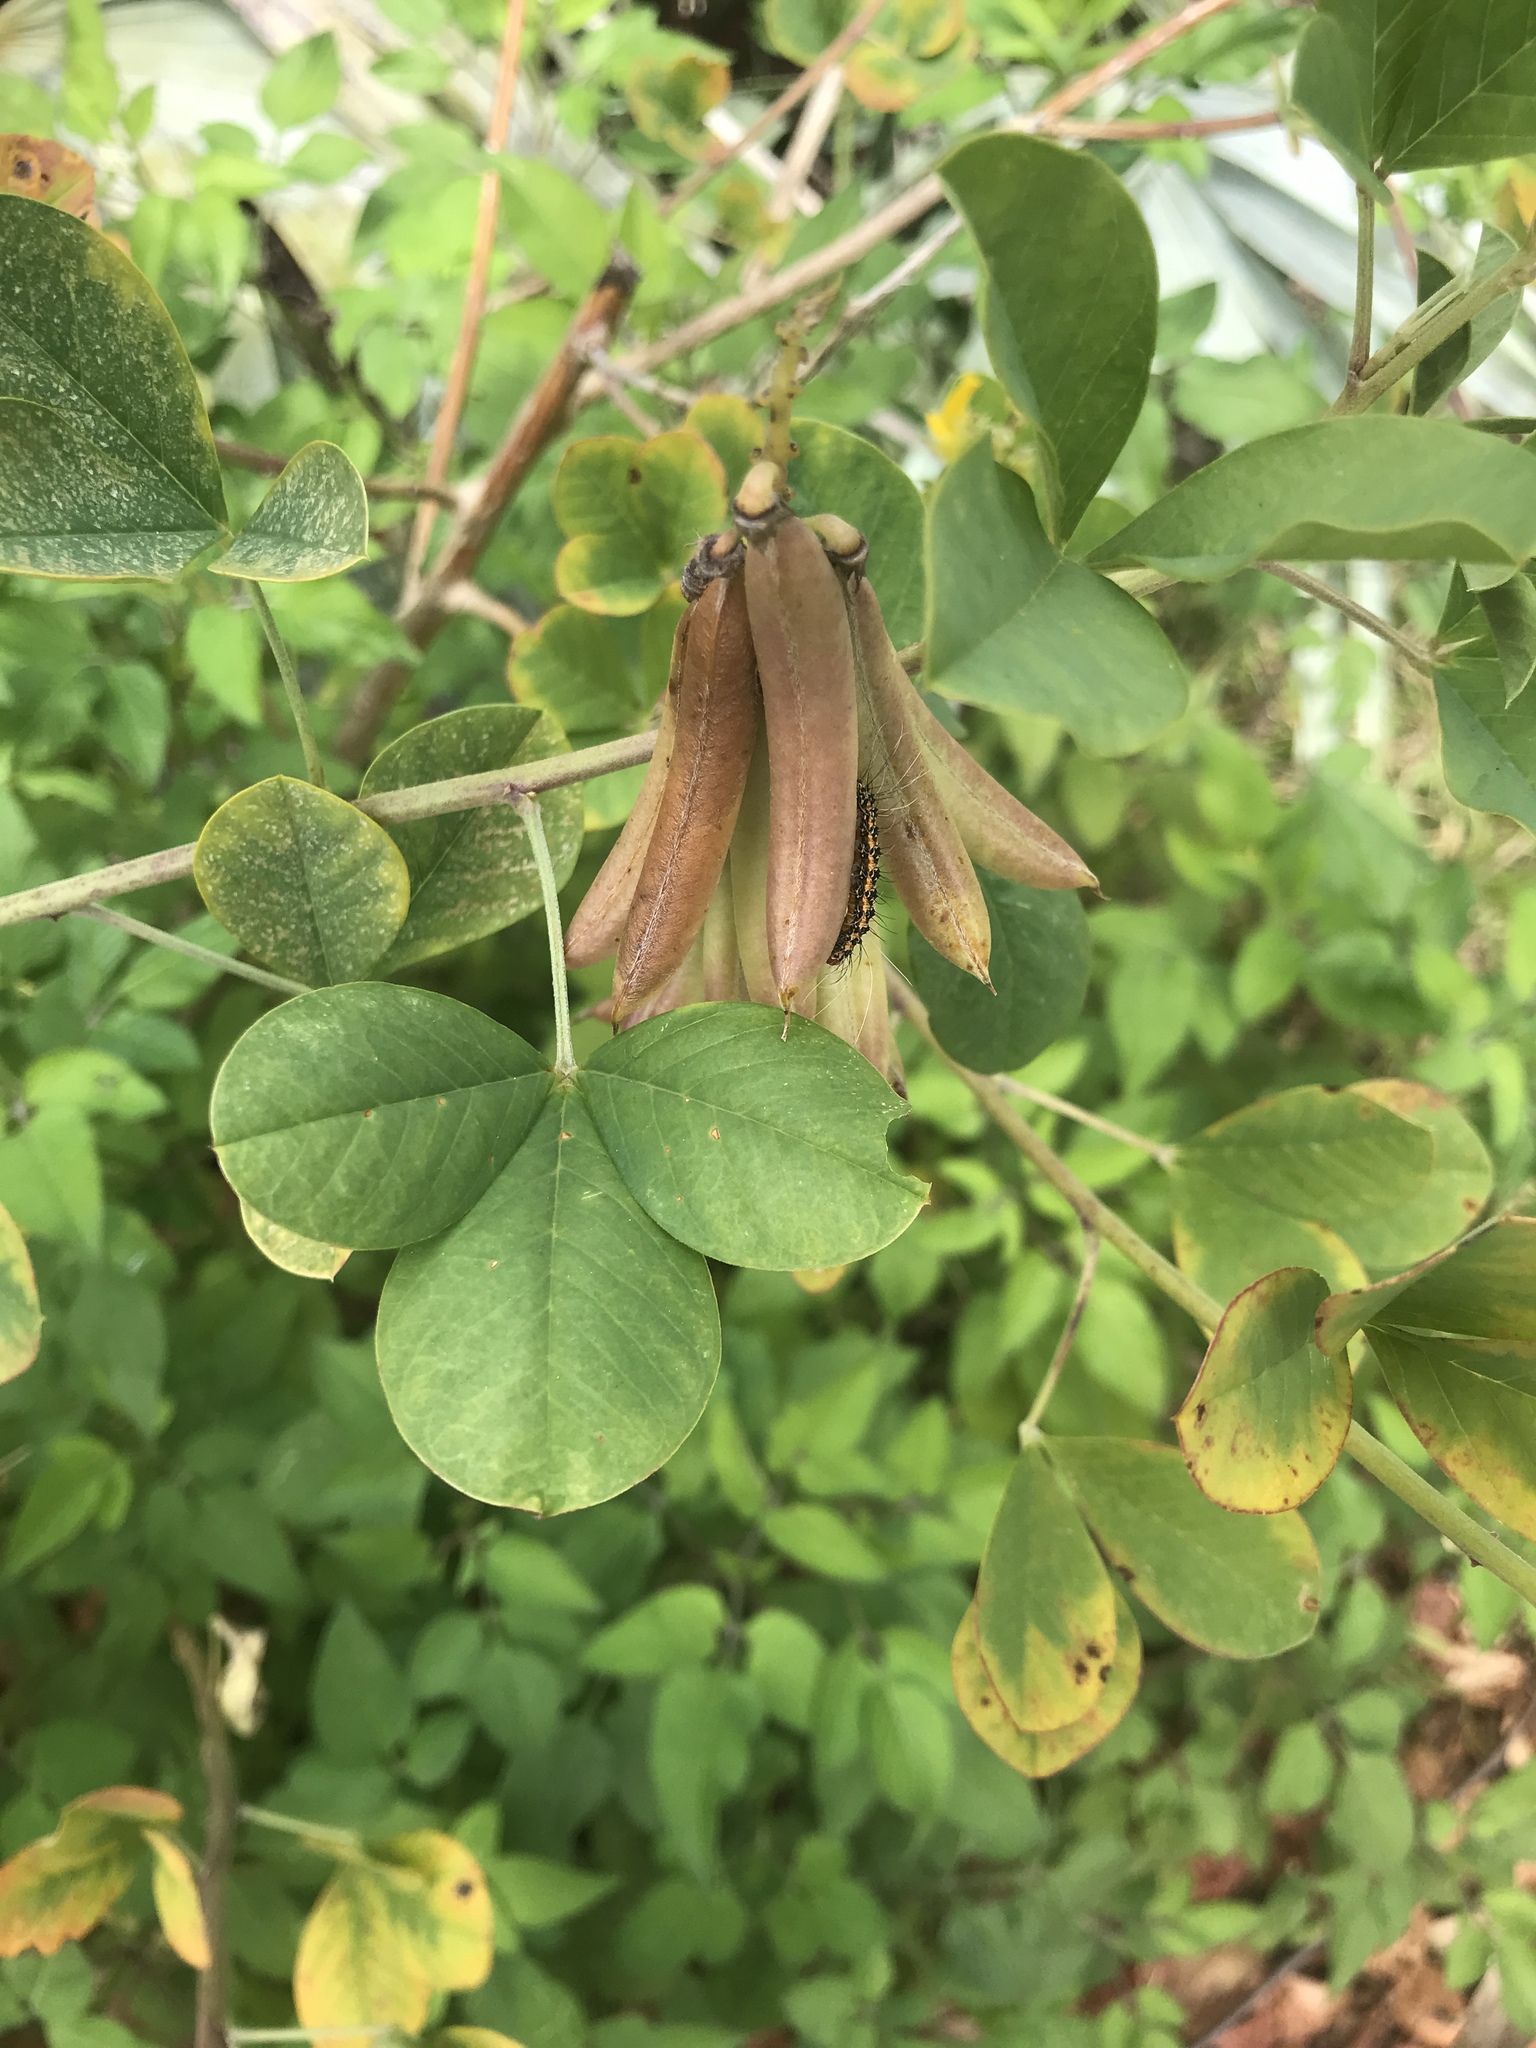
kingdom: Plantae
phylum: Tracheophyta
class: Magnoliopsida
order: Fabales
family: Fabaceae
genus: Crotalaria
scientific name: Crotalaria pallida
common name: Smooth rattlebox
